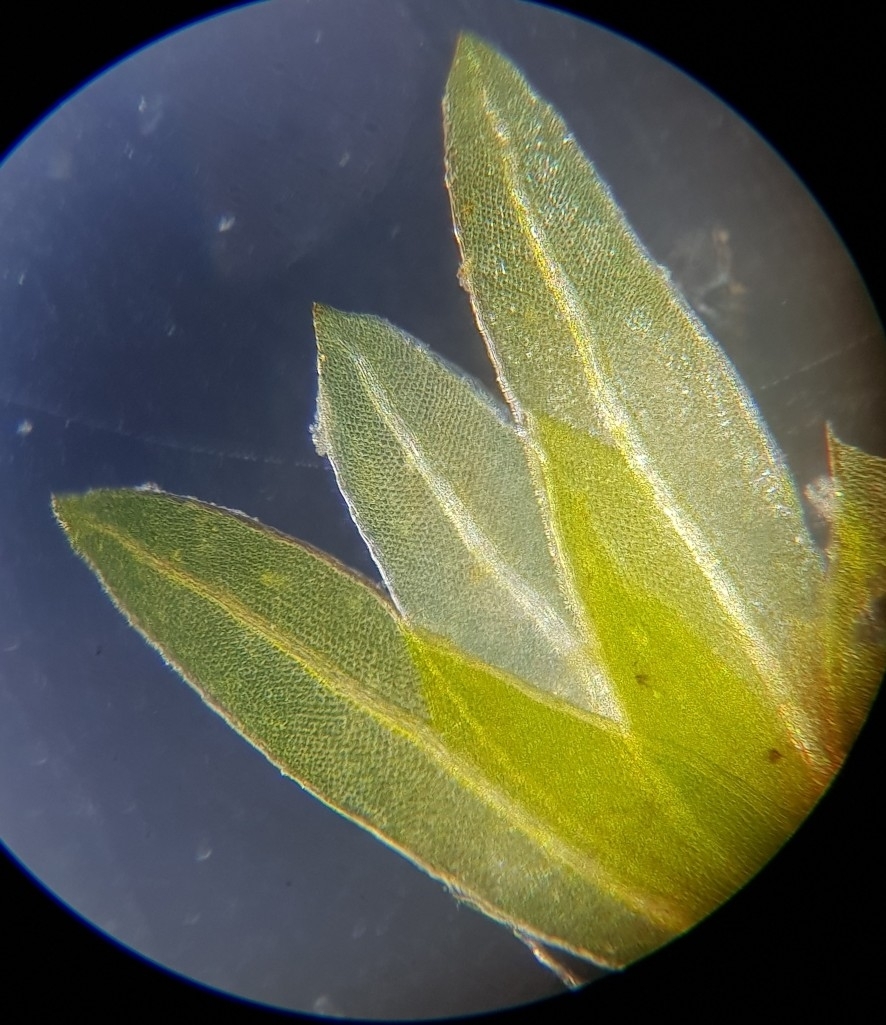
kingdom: Plantae
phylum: Bryophyta
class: Bryopsida
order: Dicranales
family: Fissidentaceae
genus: Fissidens
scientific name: Fissidens pusillus
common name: Petty pocket-moss
